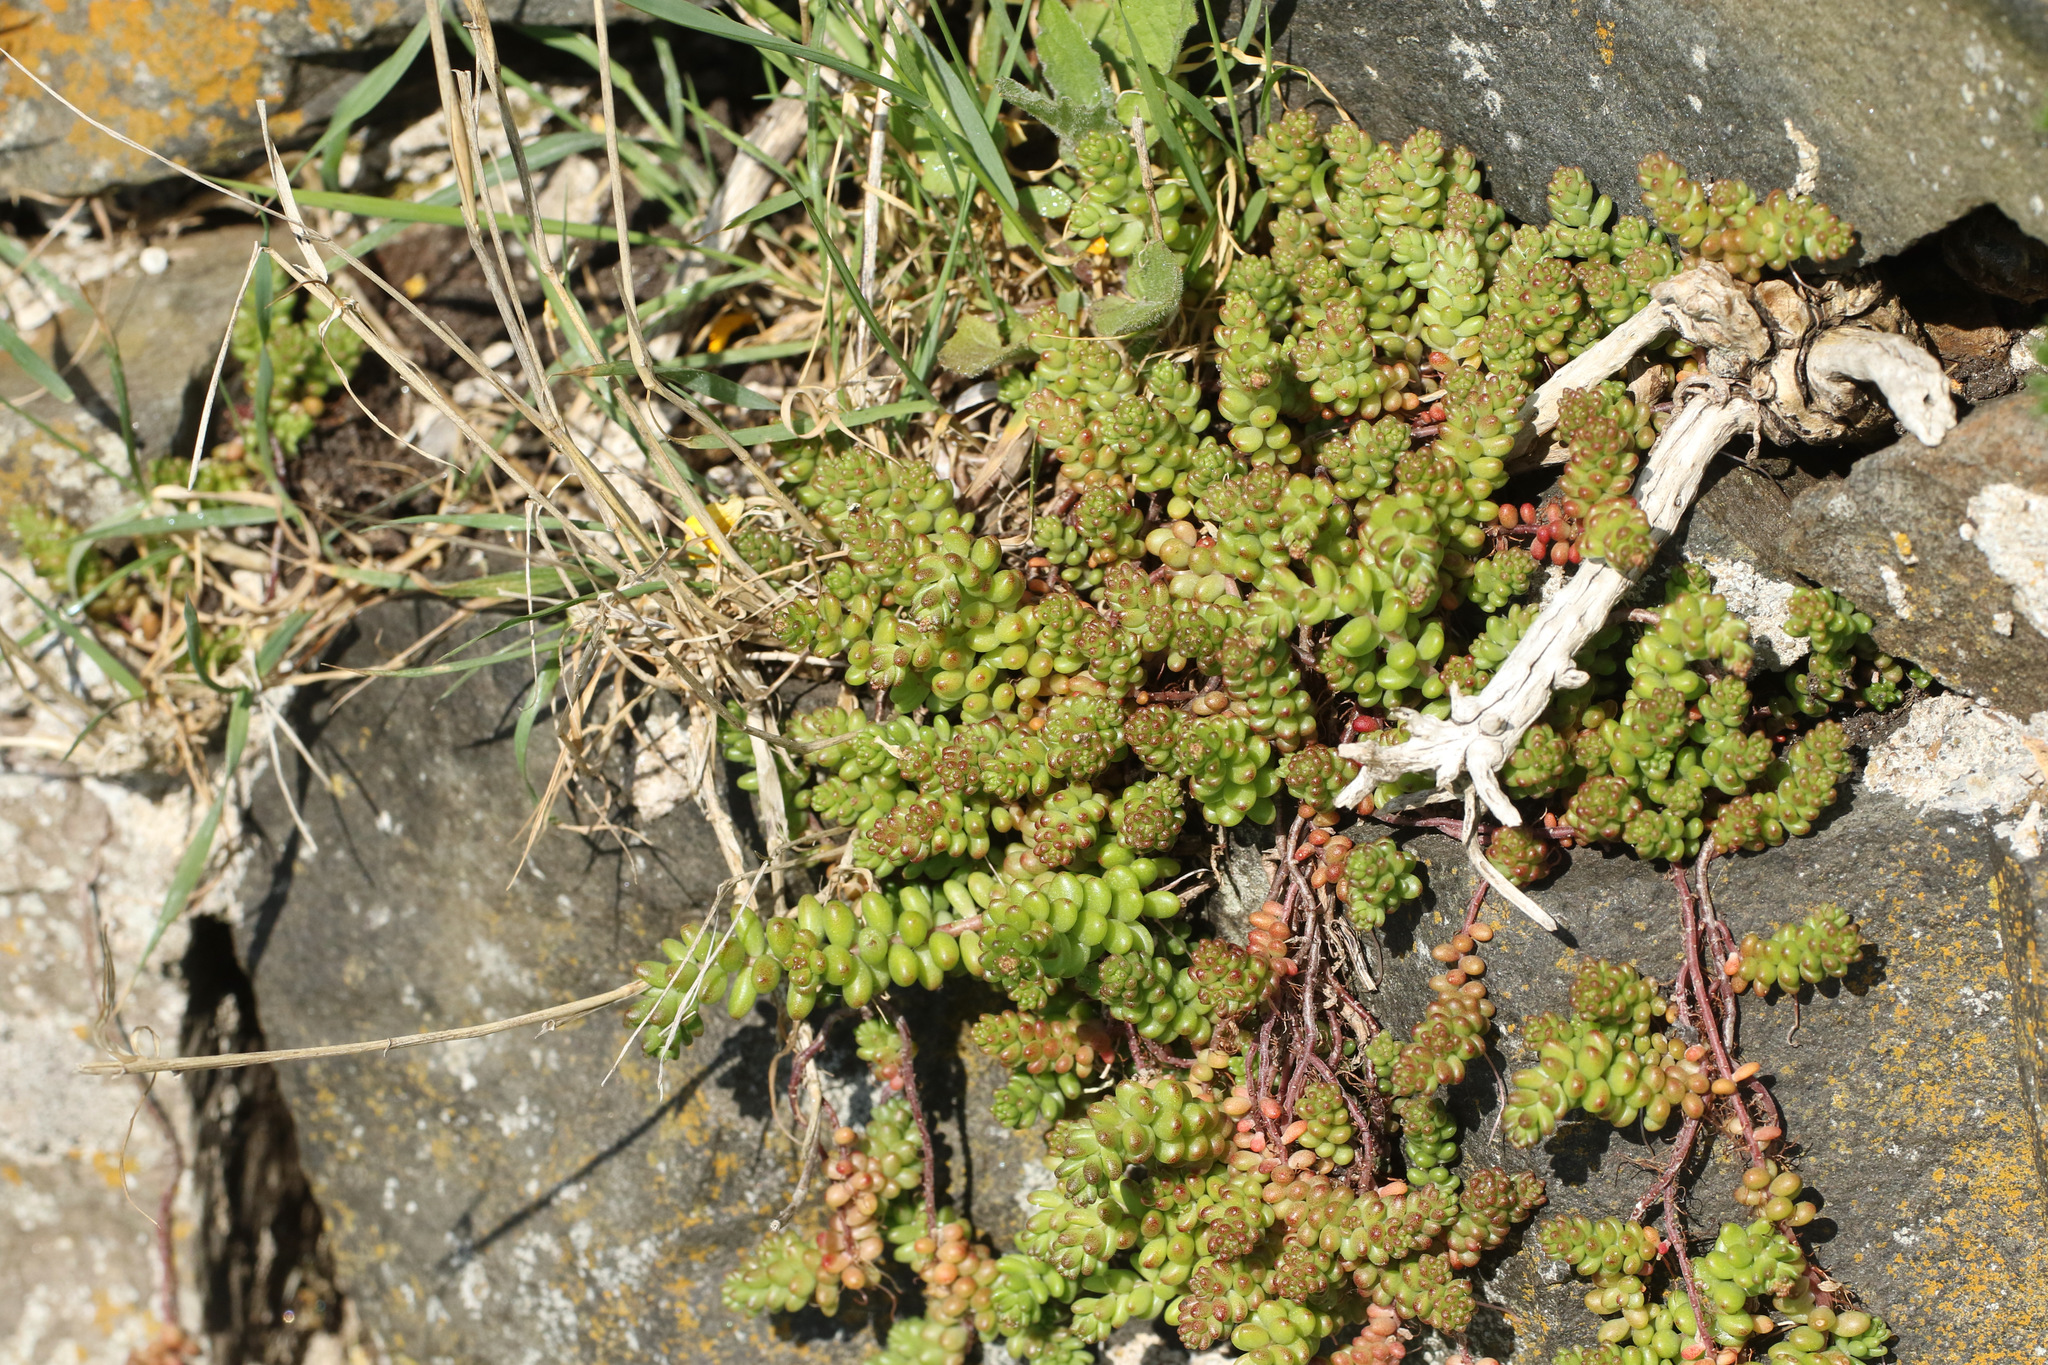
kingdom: Plantae
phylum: Tracheophyta
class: Magnoliopsida
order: Saxifragales
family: Crassulaceae
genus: Sedum
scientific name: Sedum album
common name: White stonecrop
